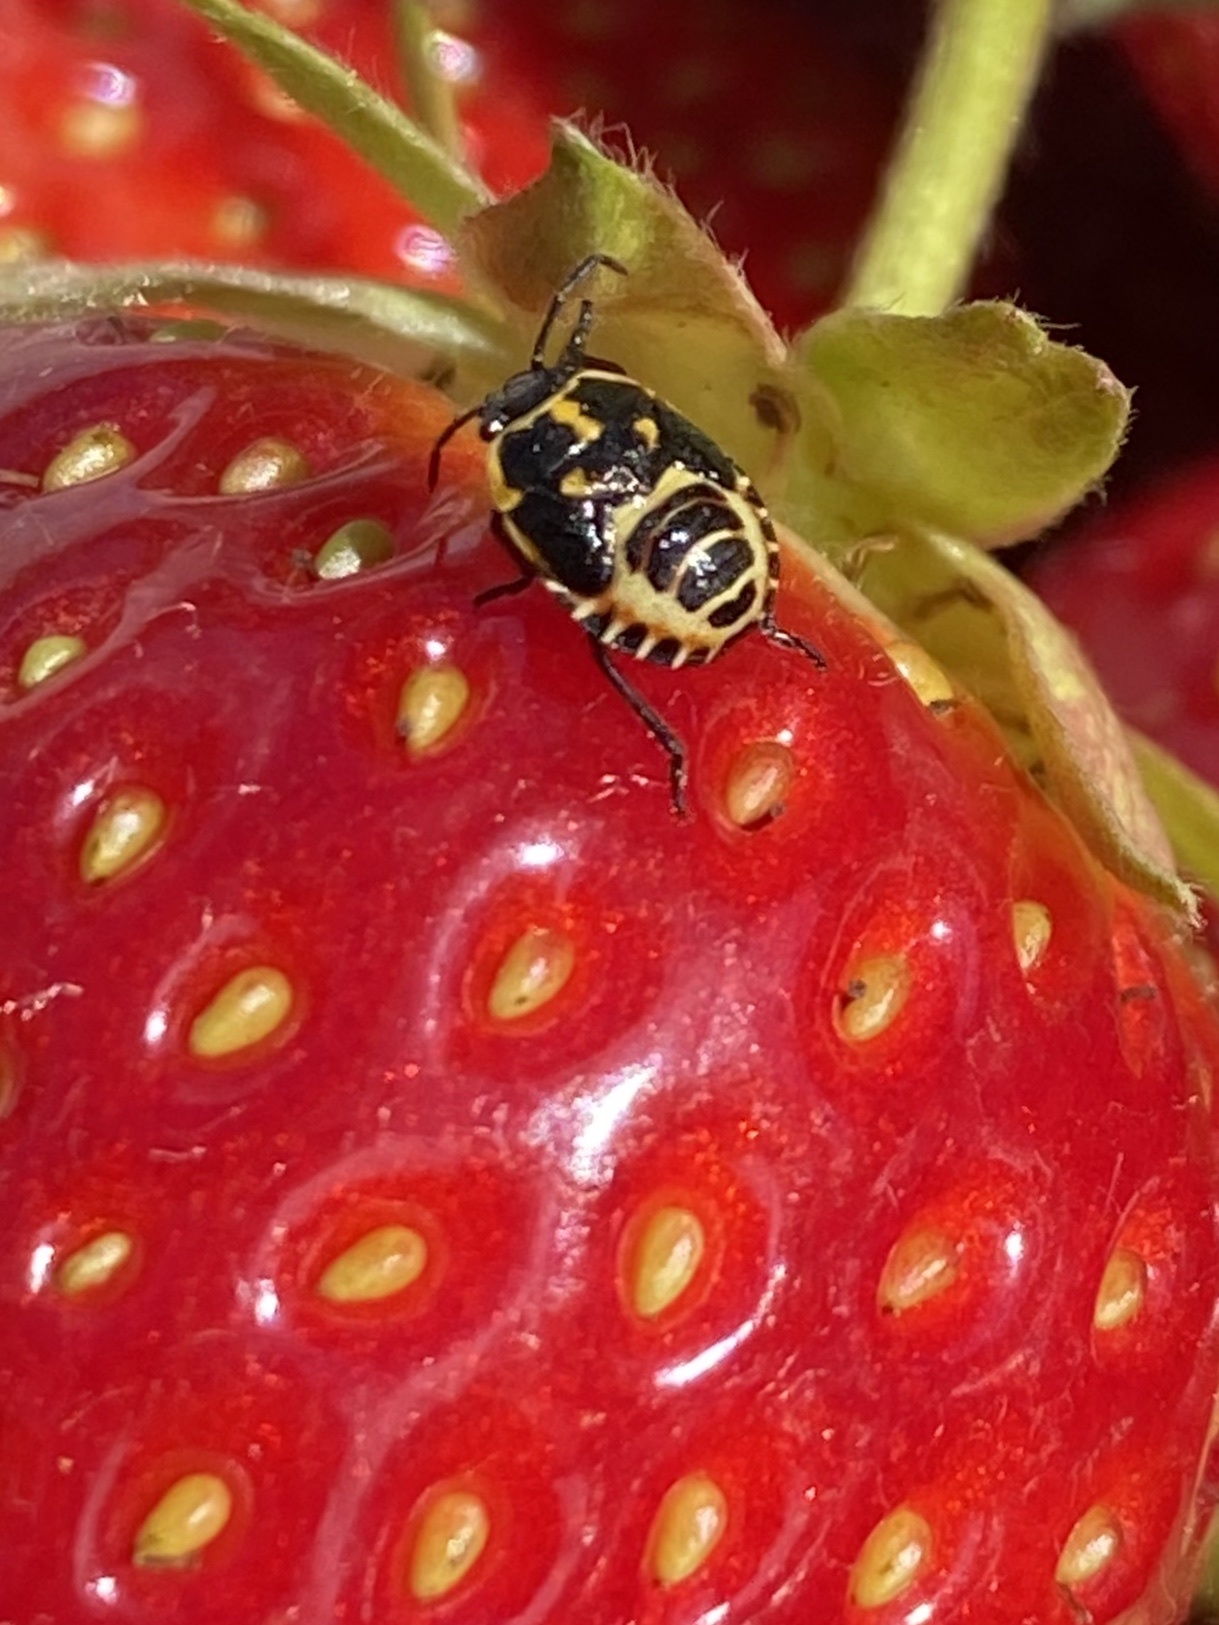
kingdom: Animalia
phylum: Arthropoda
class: Insecta
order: Hemiptera
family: Pentatomidae
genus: Eurydema
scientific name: Eurydema oleracea
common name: Cabbage bug
